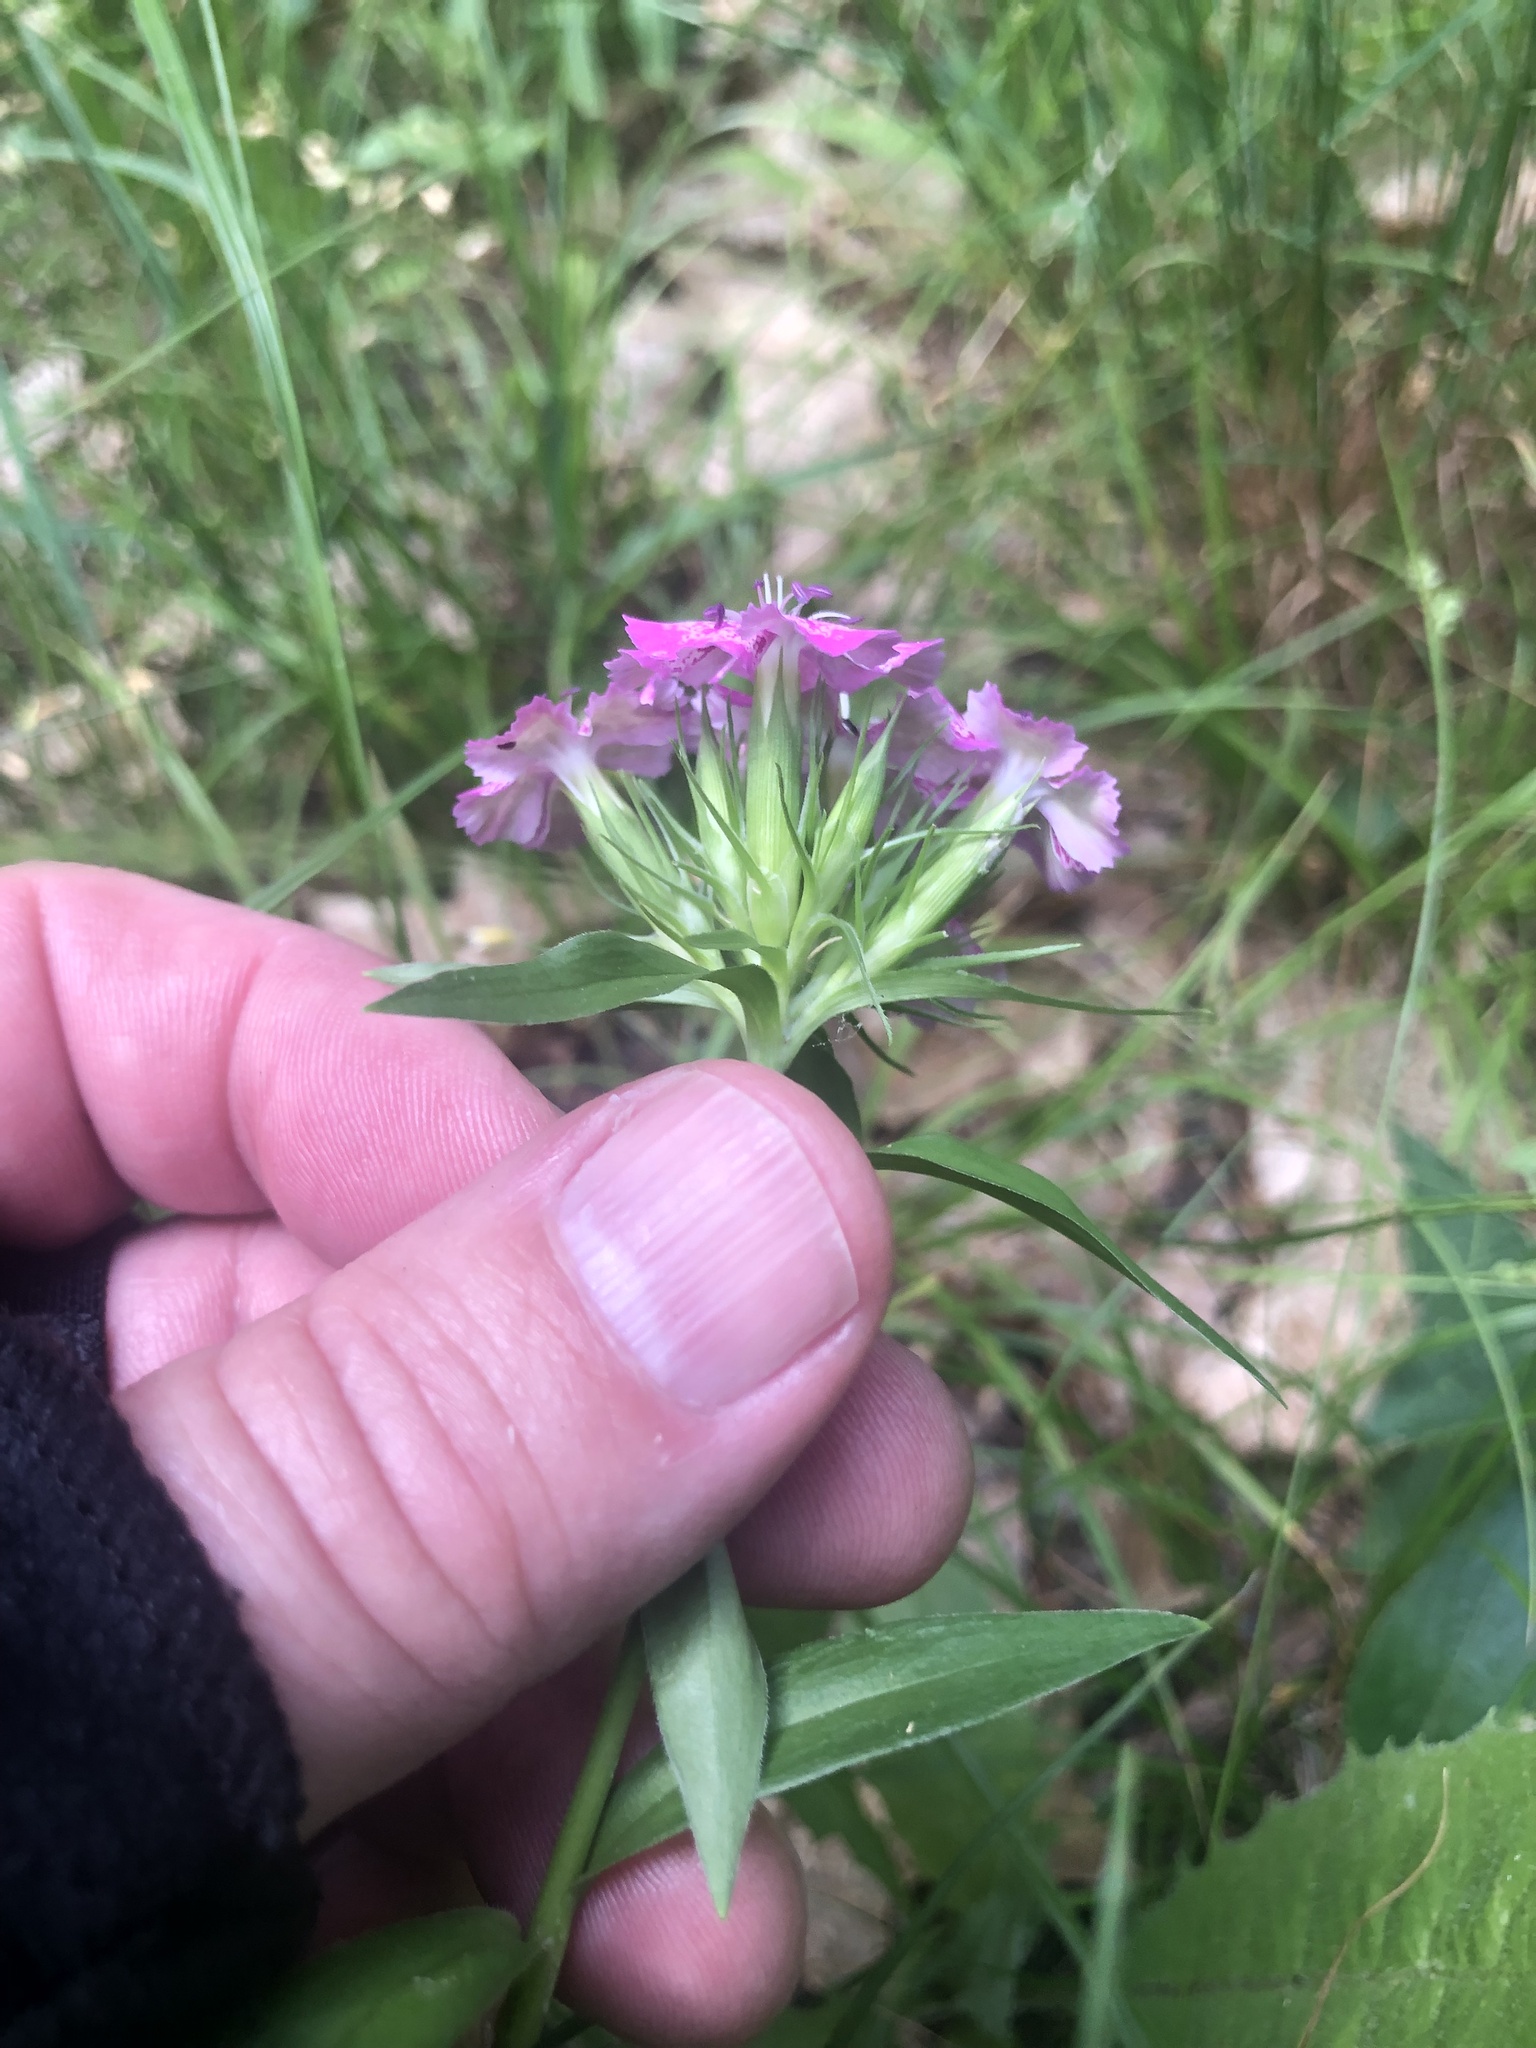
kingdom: Plantae
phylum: Tracheophyta
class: Magnoliopsida
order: Caryophyllales
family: Caryophyllaceae
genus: Dianthus
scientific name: Dianthus barbatus
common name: Sweet-william
